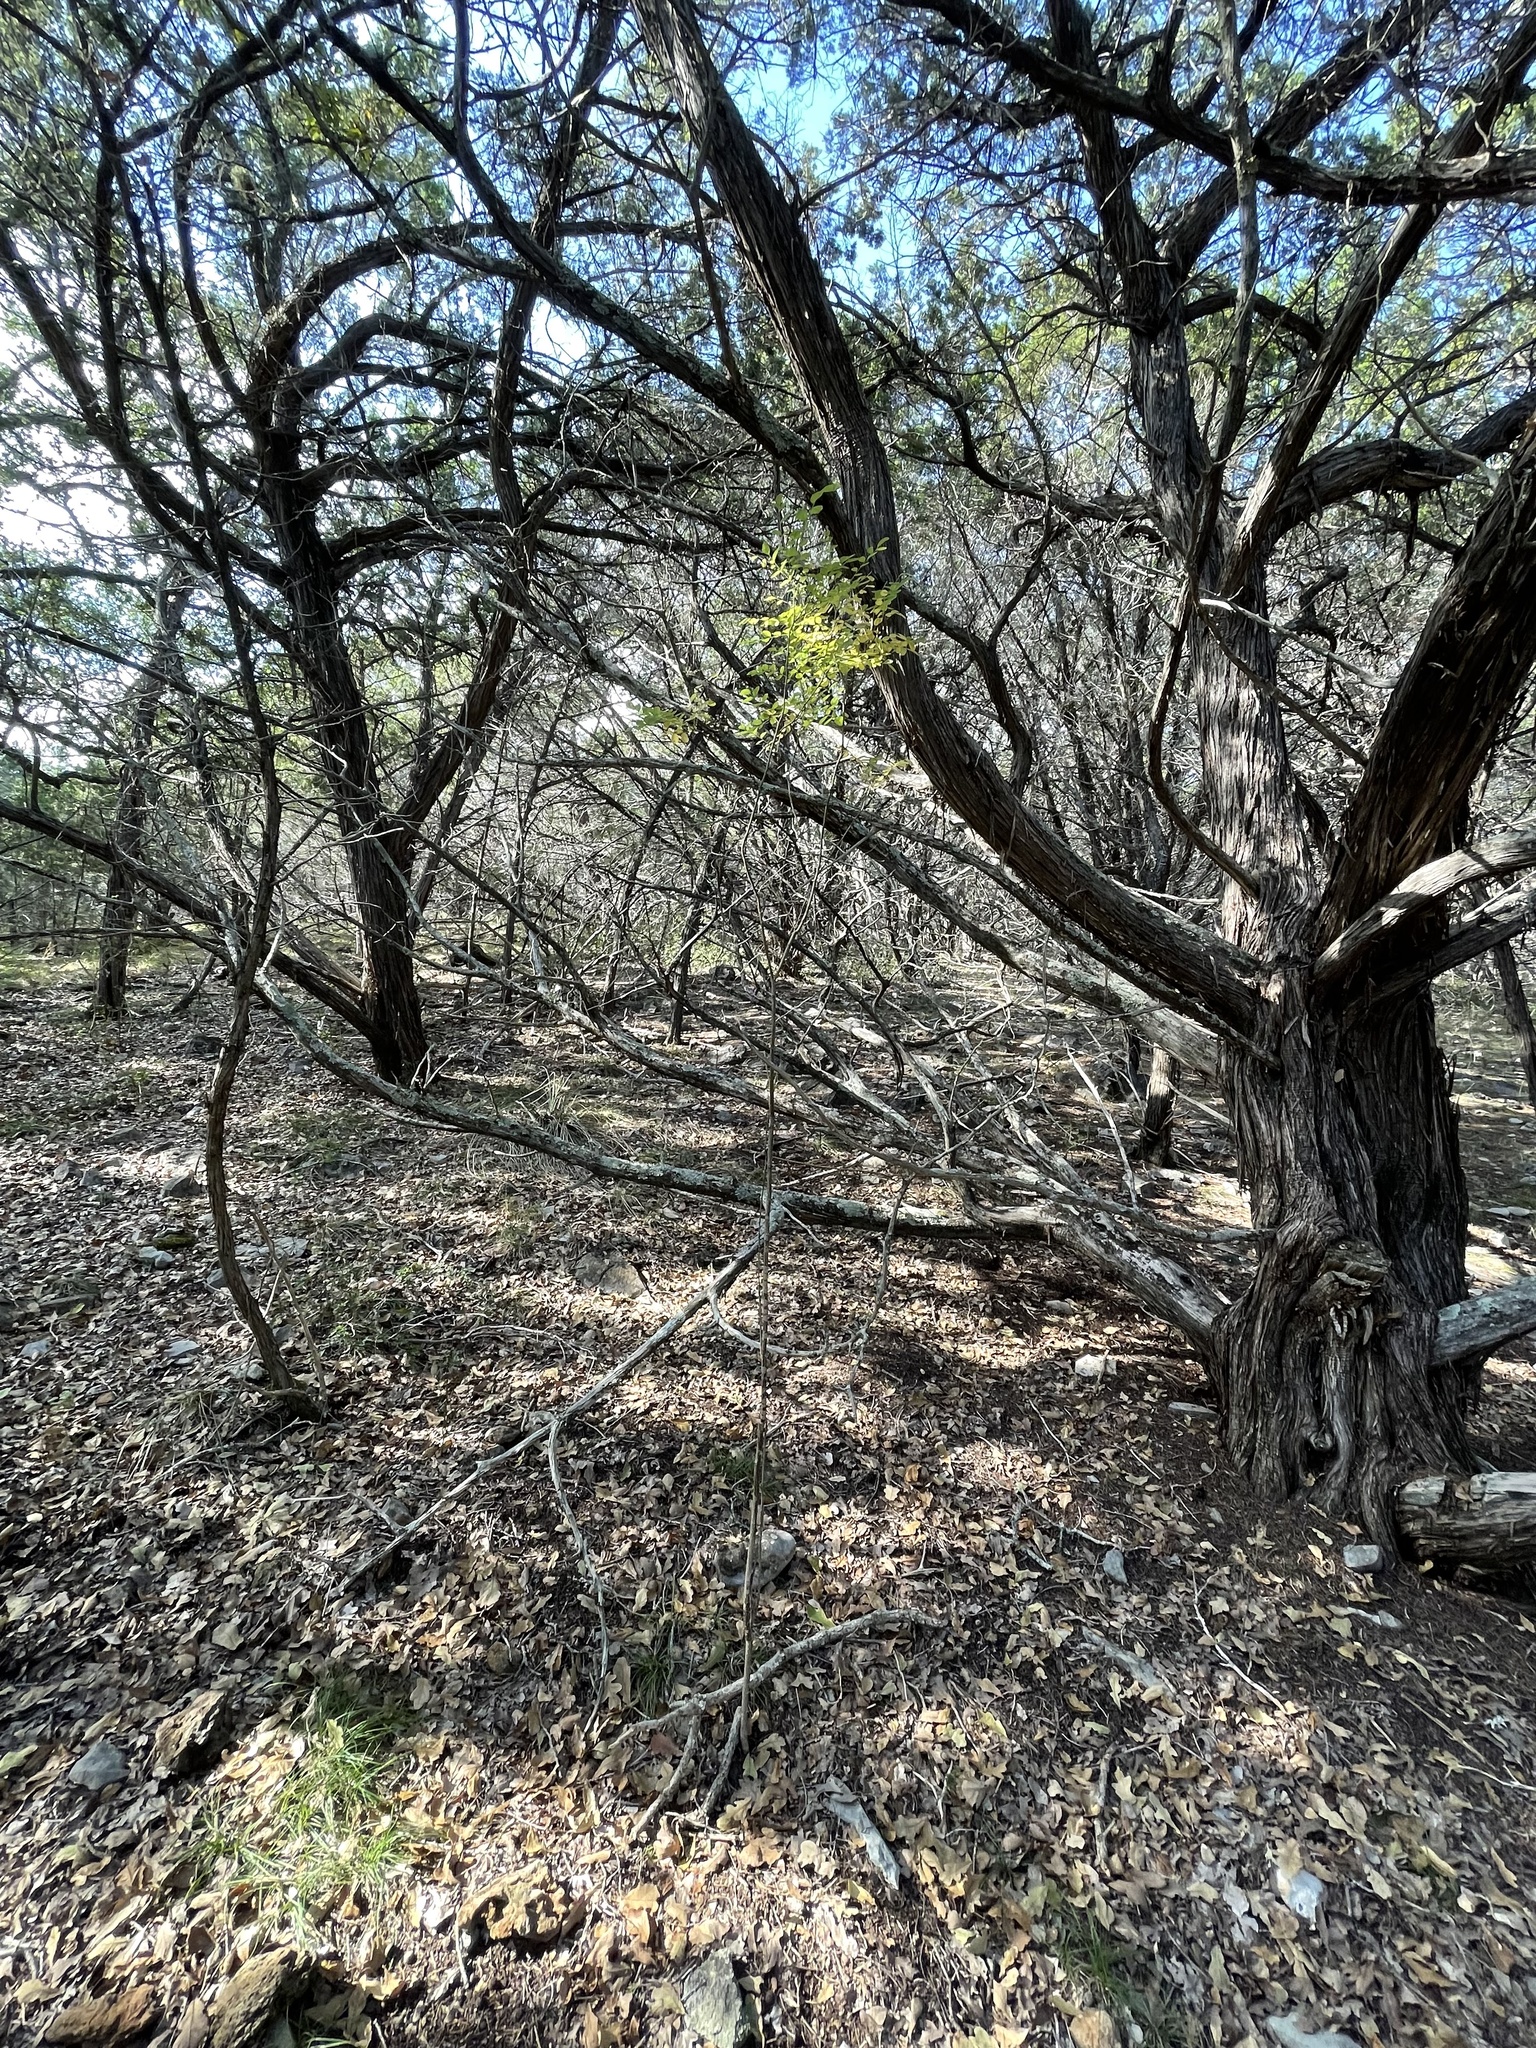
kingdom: Plantae
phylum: Tracheophyta
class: Magnoliopsida
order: Fabales
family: Fabaceae
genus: Styphnolobium
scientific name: Styphnolobium affine
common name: Texas sophora
